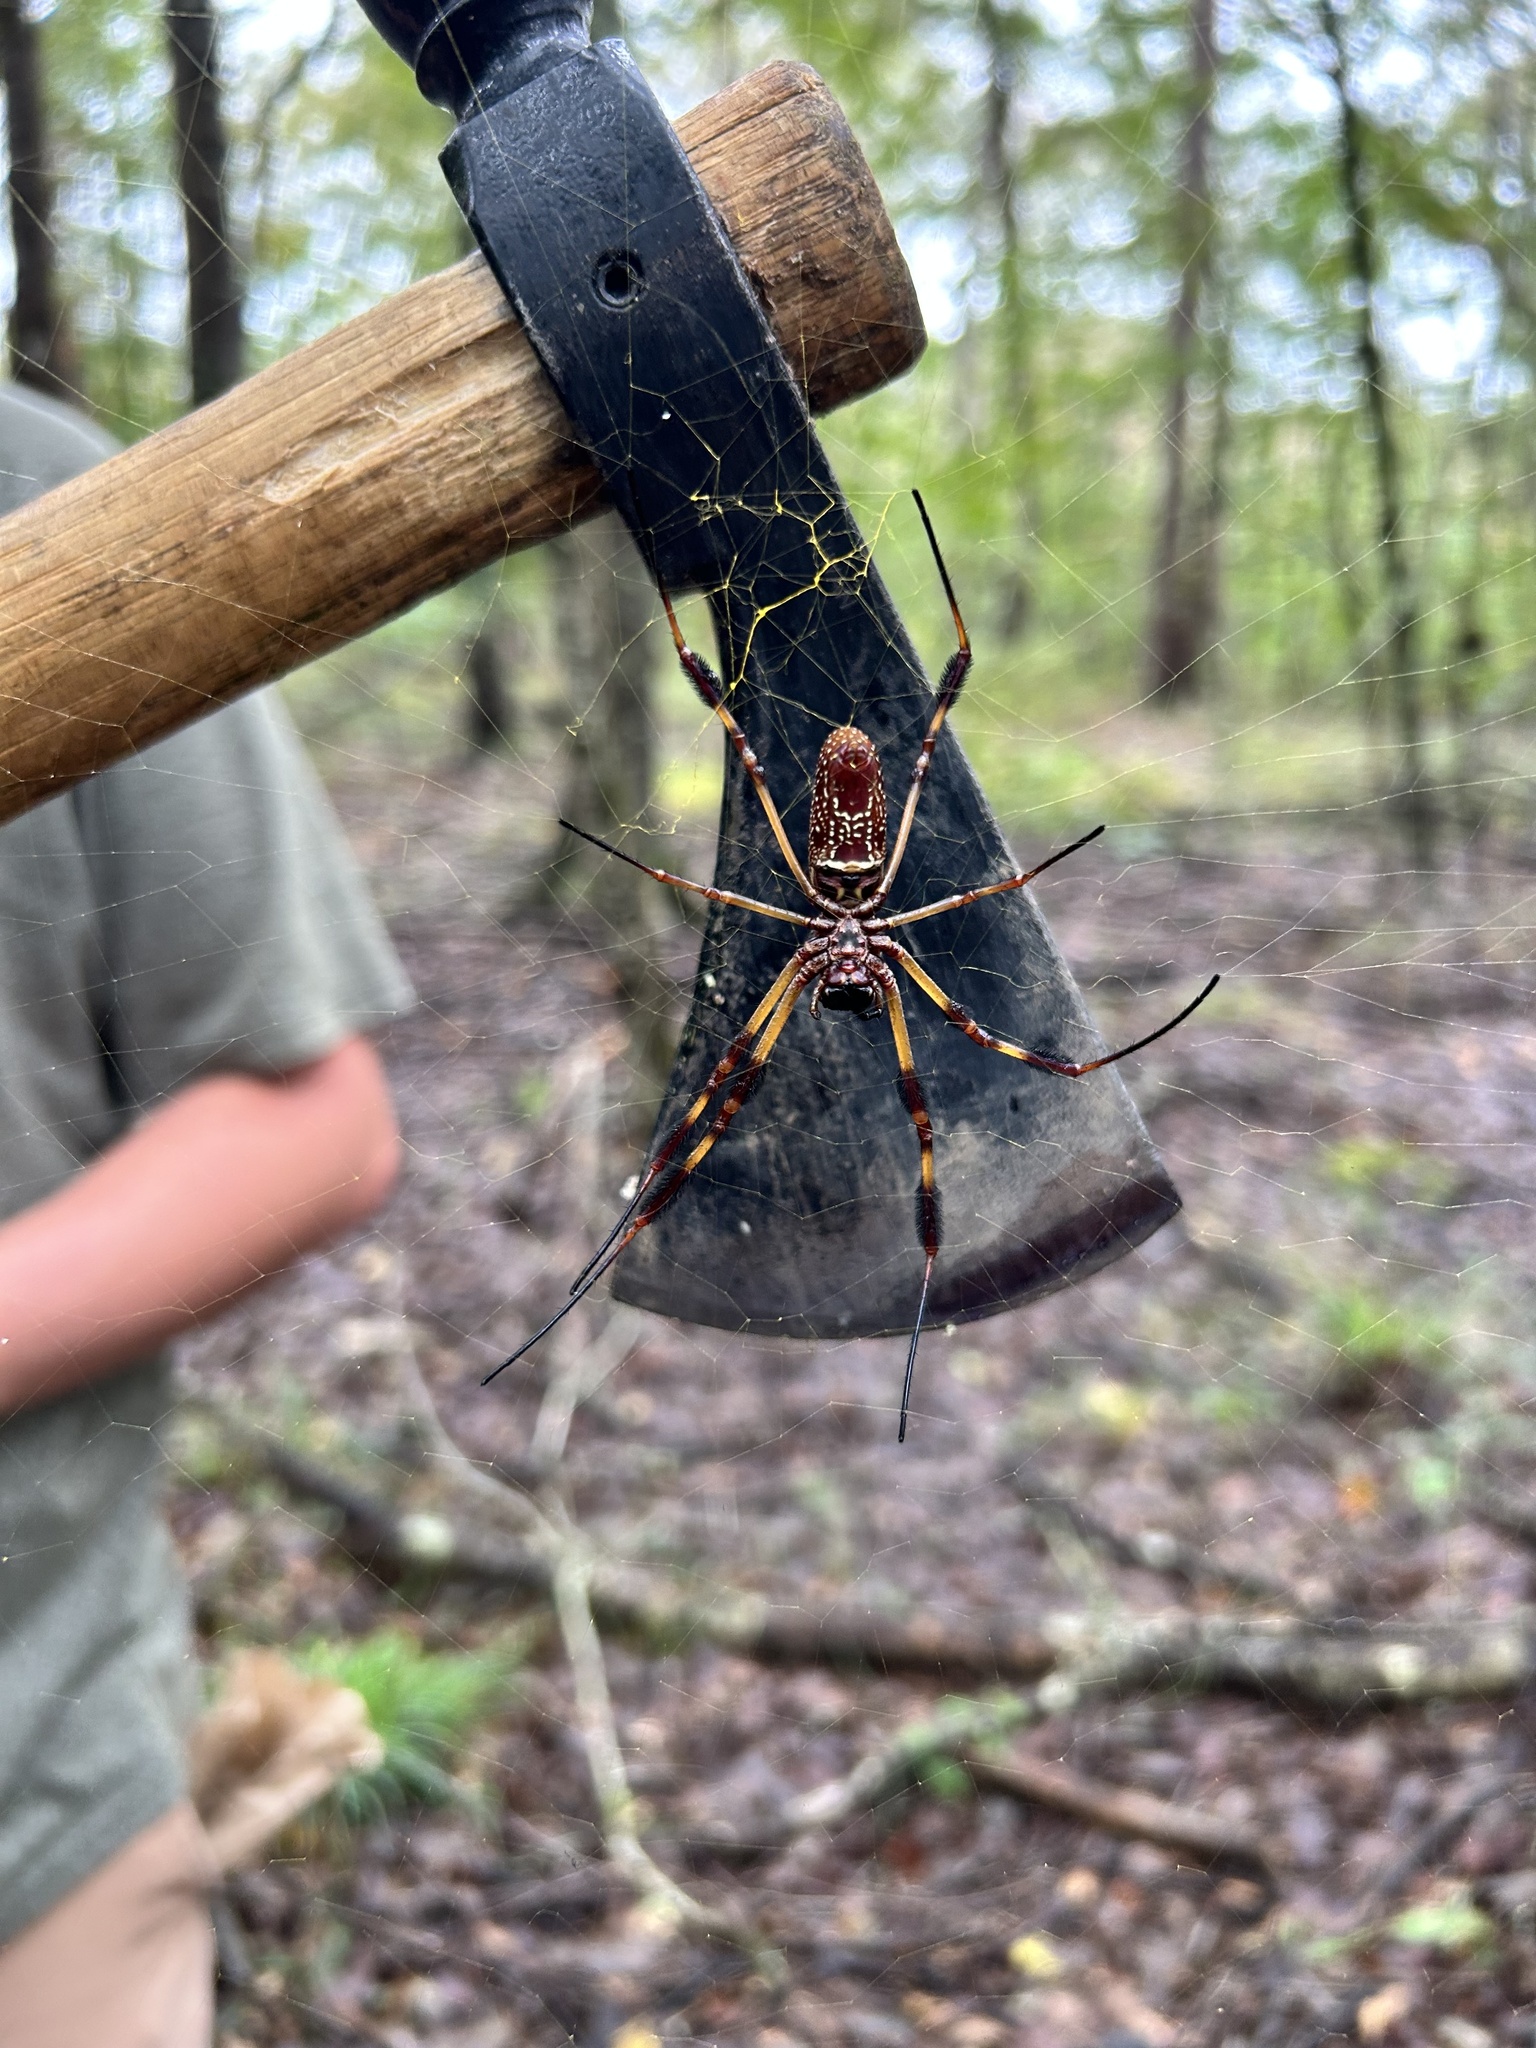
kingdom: Animalia
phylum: Arthropoda
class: Arachnida
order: Araneae
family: Araneidae
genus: Trichonephila
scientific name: Trichonephila clavipes
